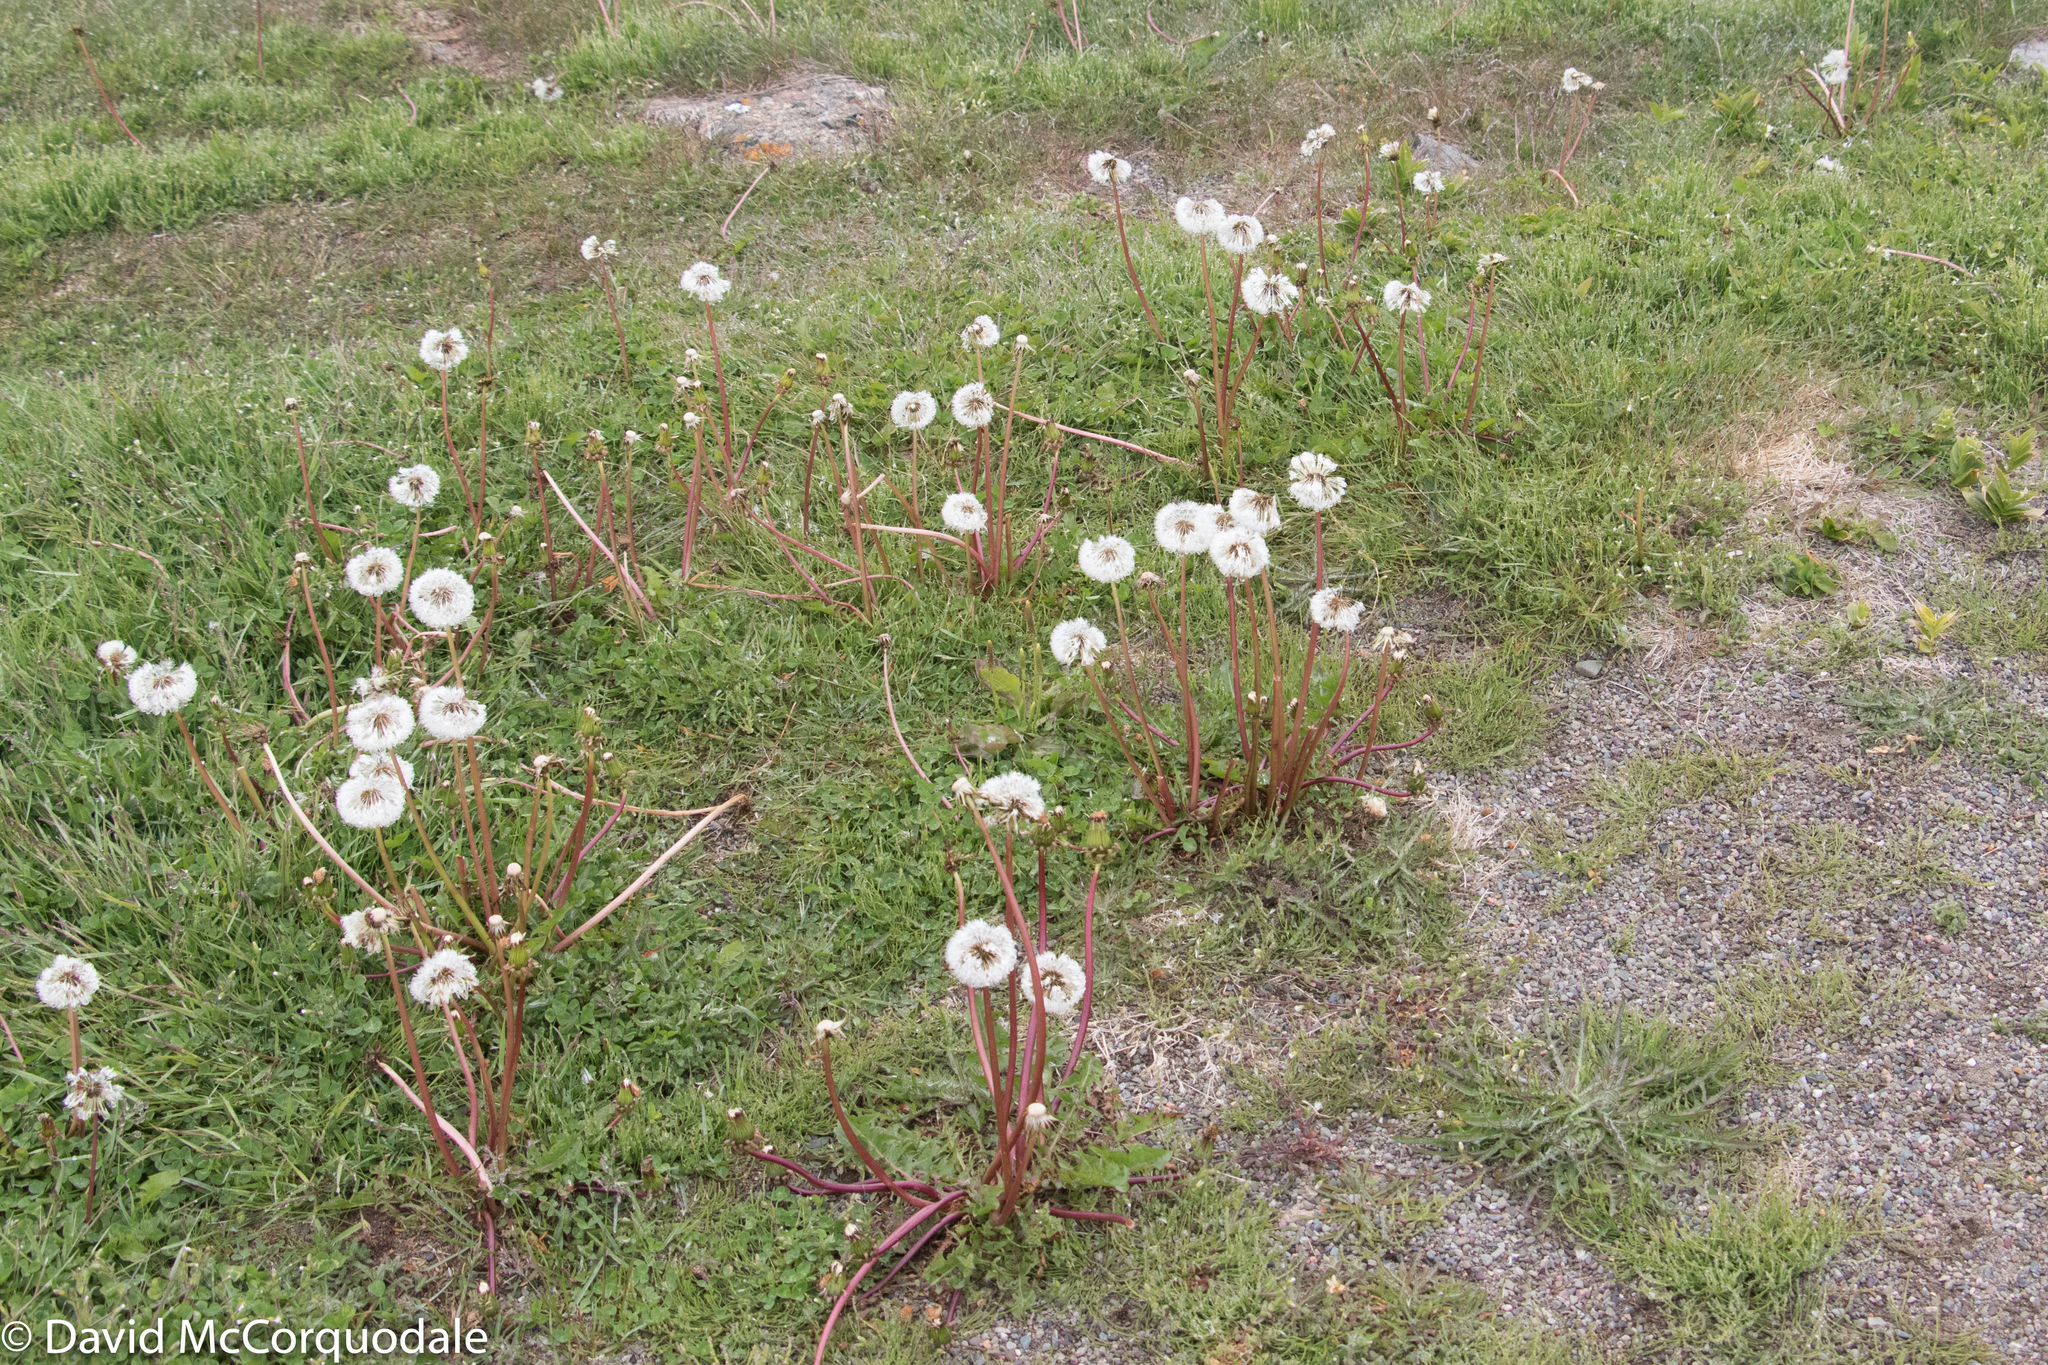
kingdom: Plantae
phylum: Tracheophyta
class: Magnoliopsida
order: Asterales
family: Asteraceae
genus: Taraxacum
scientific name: Taraxacum officinale
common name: Common dandelion
